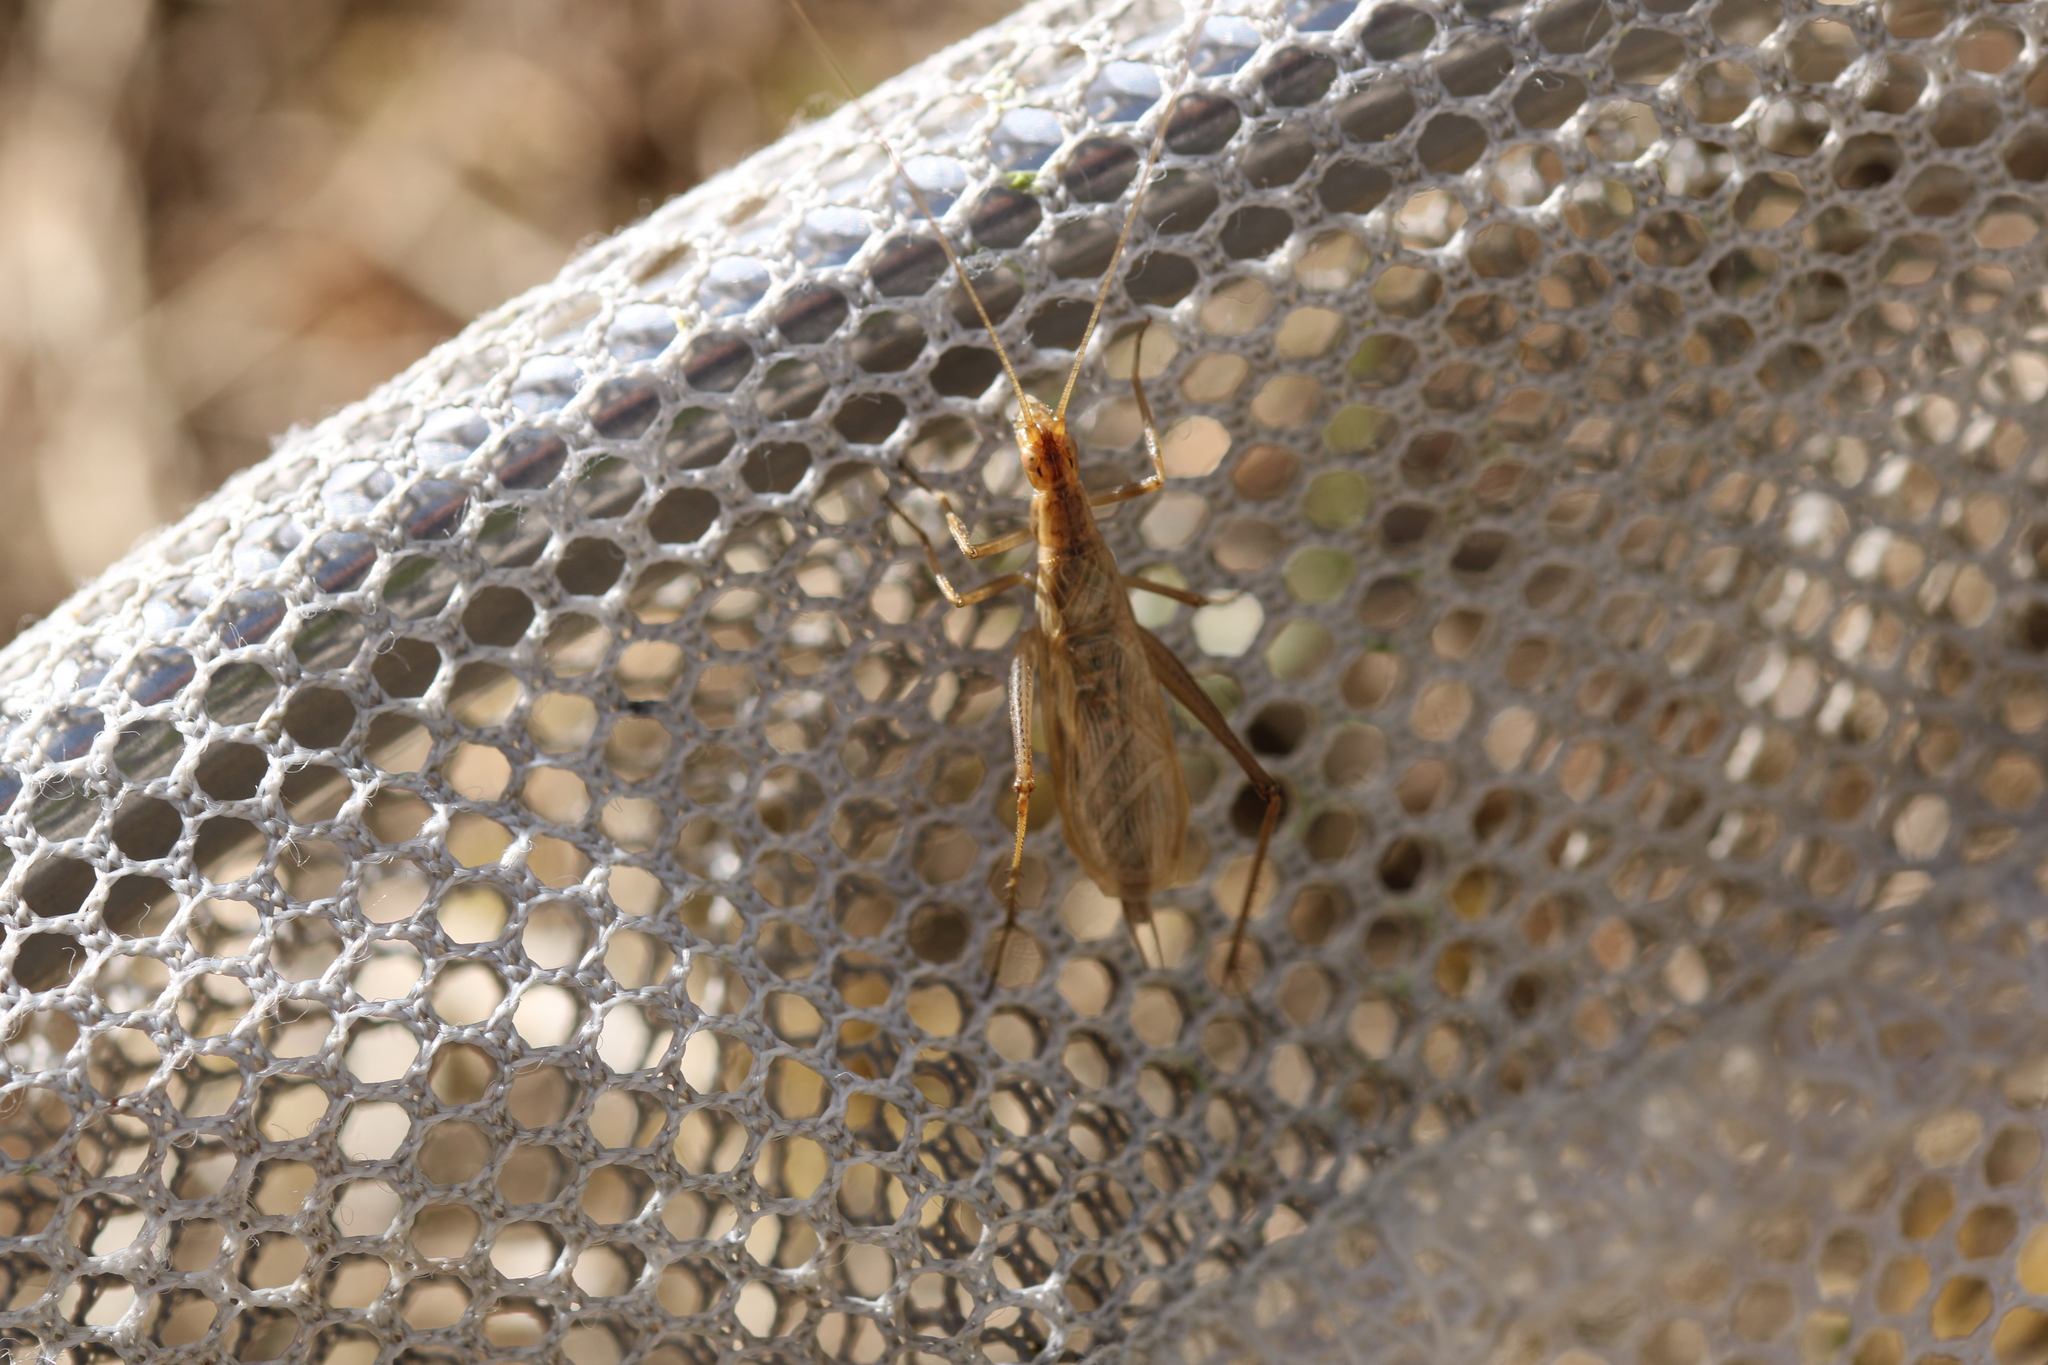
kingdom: Animalia
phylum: Arthropoda
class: Insecta
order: Orthoptera
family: Gryllidae
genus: Oecanthus
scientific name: Oecanthus pellucens
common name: Tree-cricket
